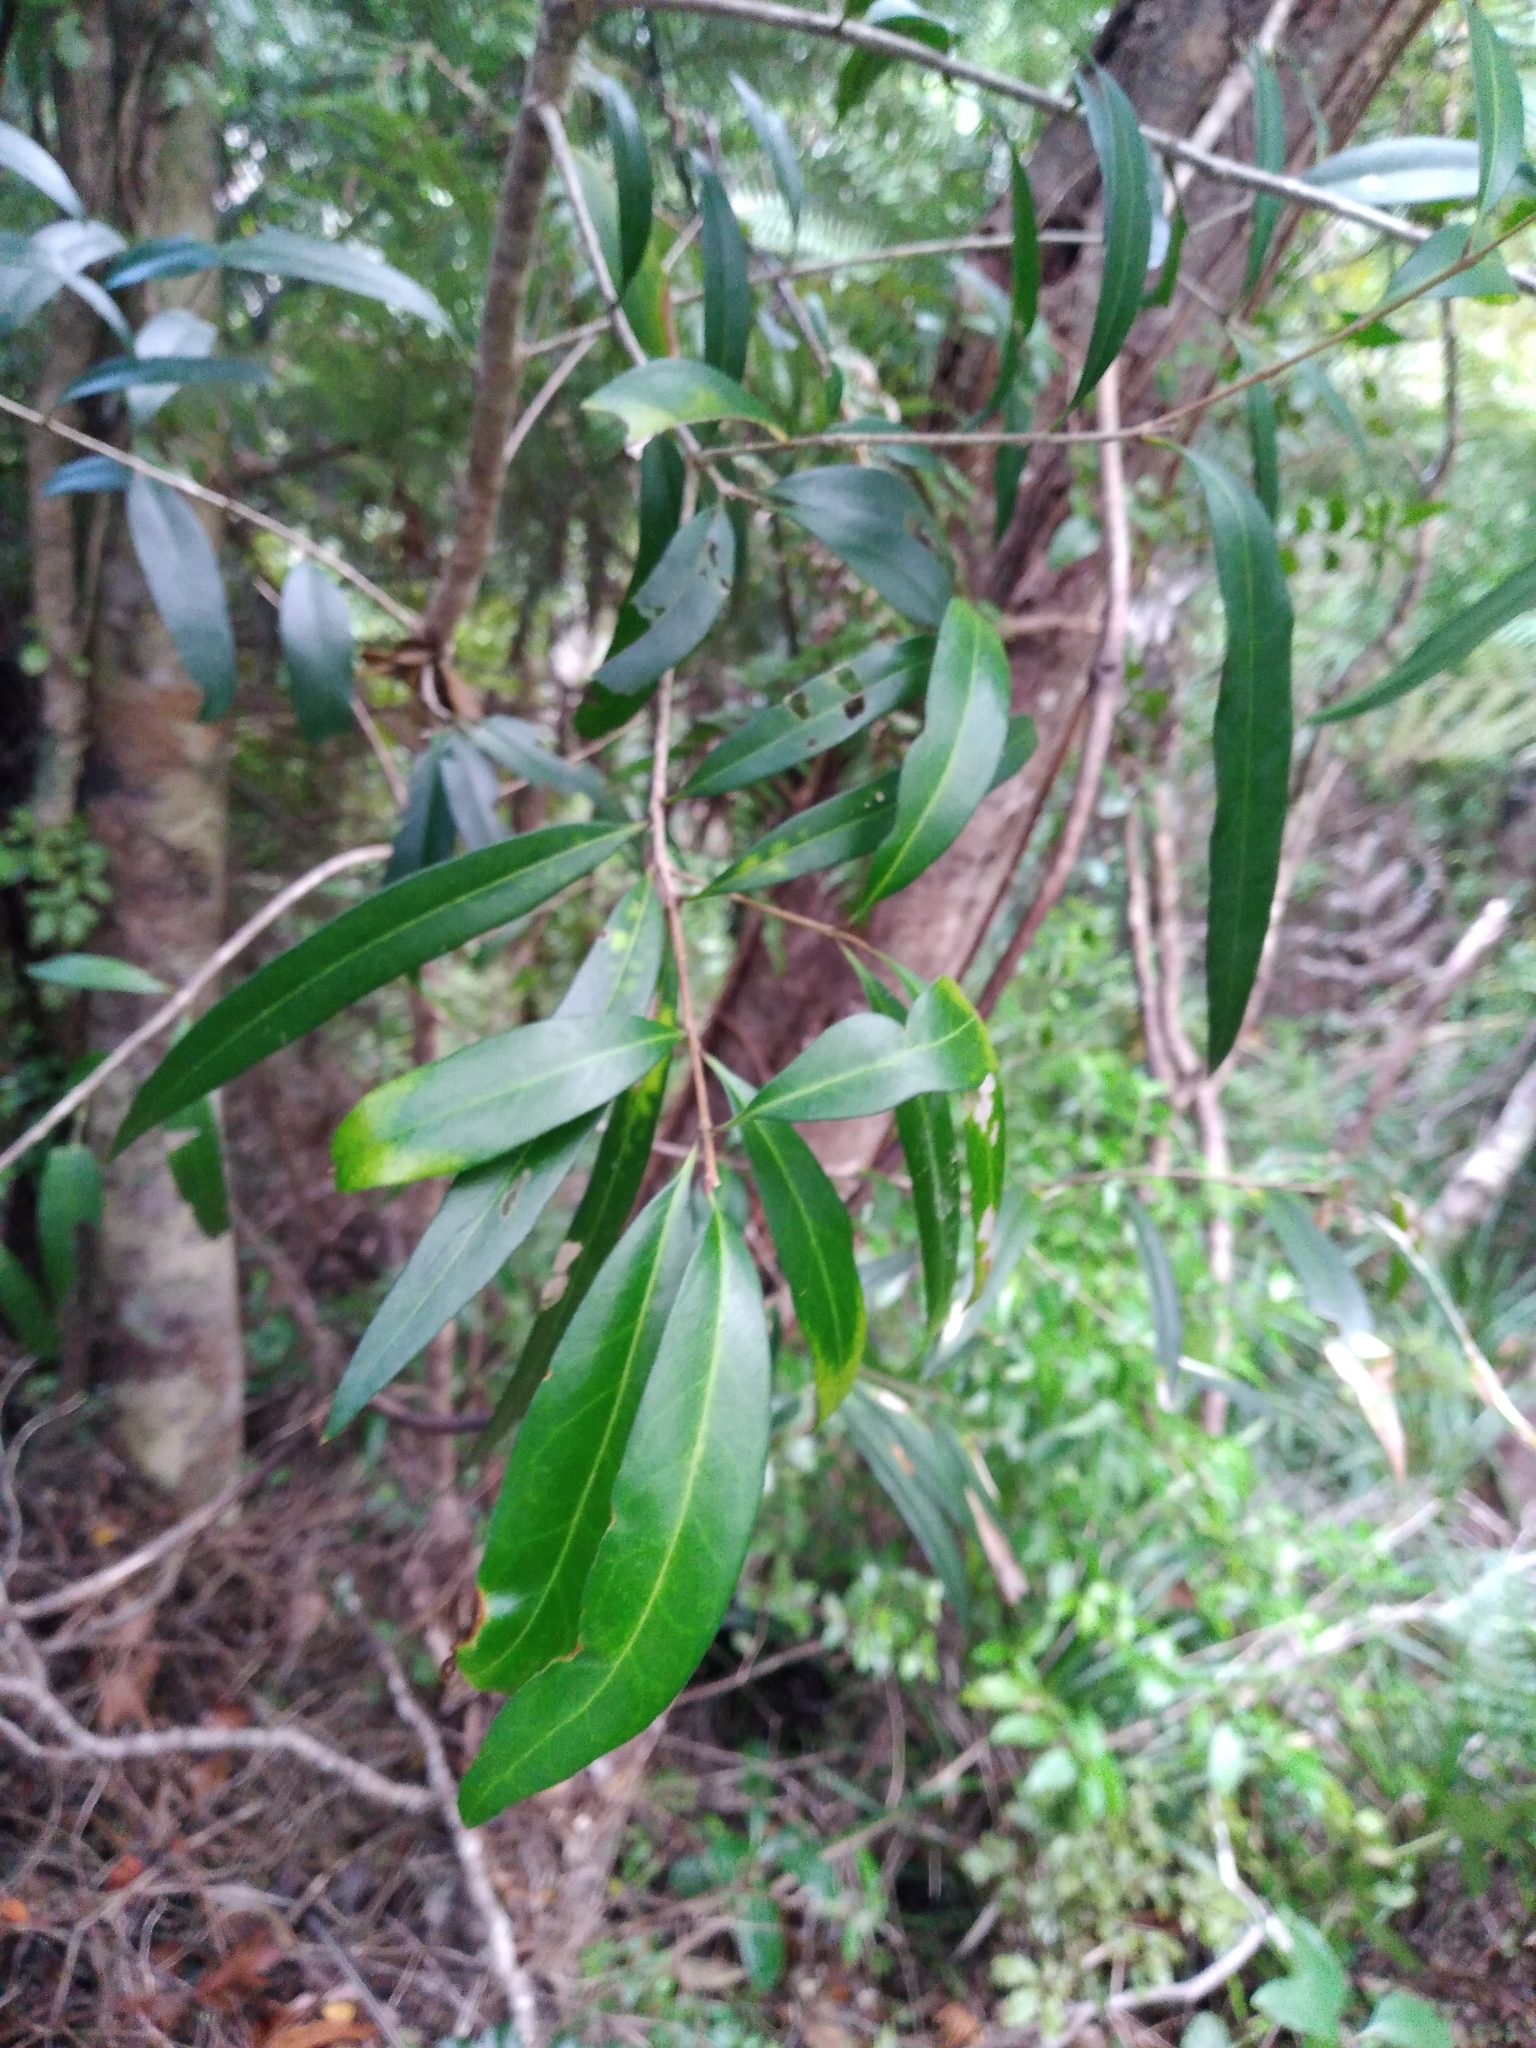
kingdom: Plantae
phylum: Tracheophyta
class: Magnoliopsida
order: Lamiales
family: Oleaceae
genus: Nestegis
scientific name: Nestegis lanceolata
